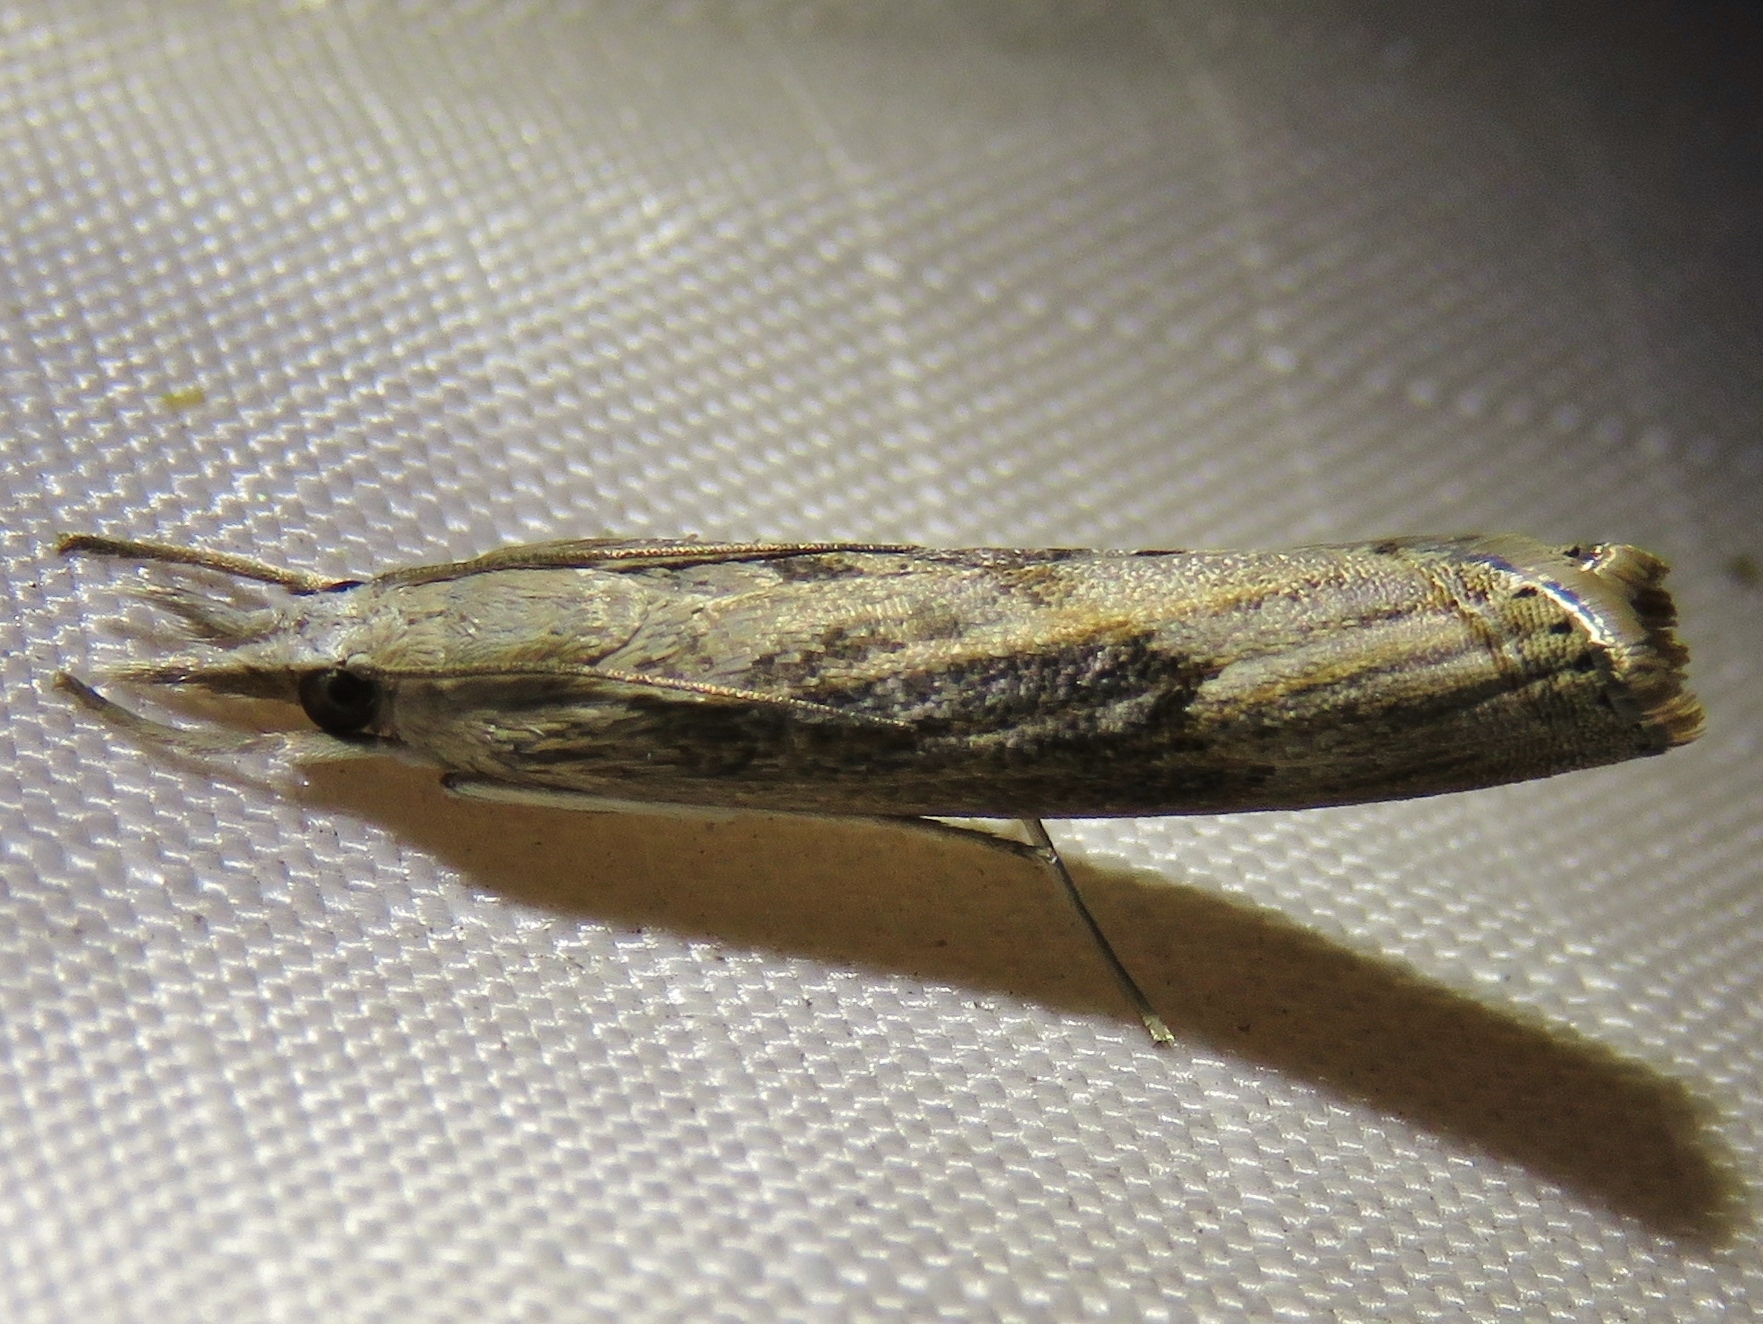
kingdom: Animalia
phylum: Arthropoda
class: Insecta
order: Lepidoptera
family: Crambidae
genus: Parapediasia
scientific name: Parapediasia teterellus
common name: Bluegrass webworm moth
